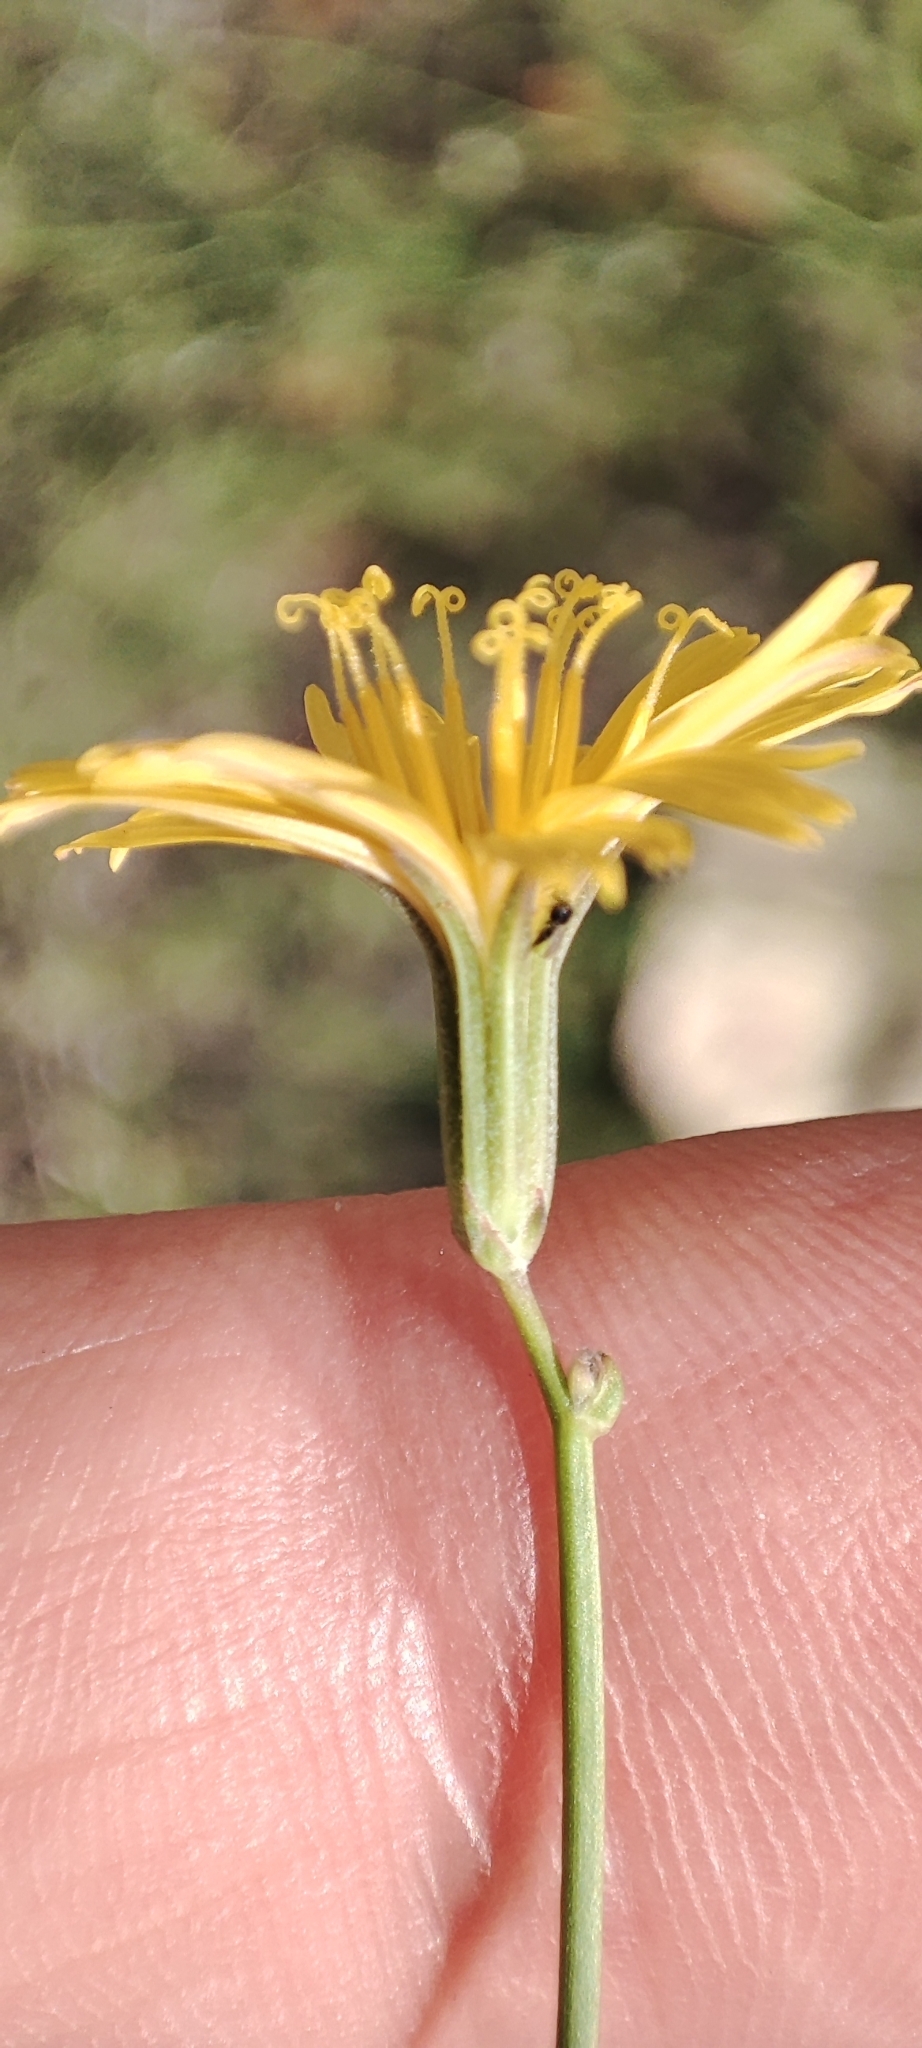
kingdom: Plantae
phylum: Tracheophyta
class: Magnoliopsida
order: Asterales
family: Asteraceae
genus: Chondrilla
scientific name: Chondrilla juncea
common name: Skeleton weed
